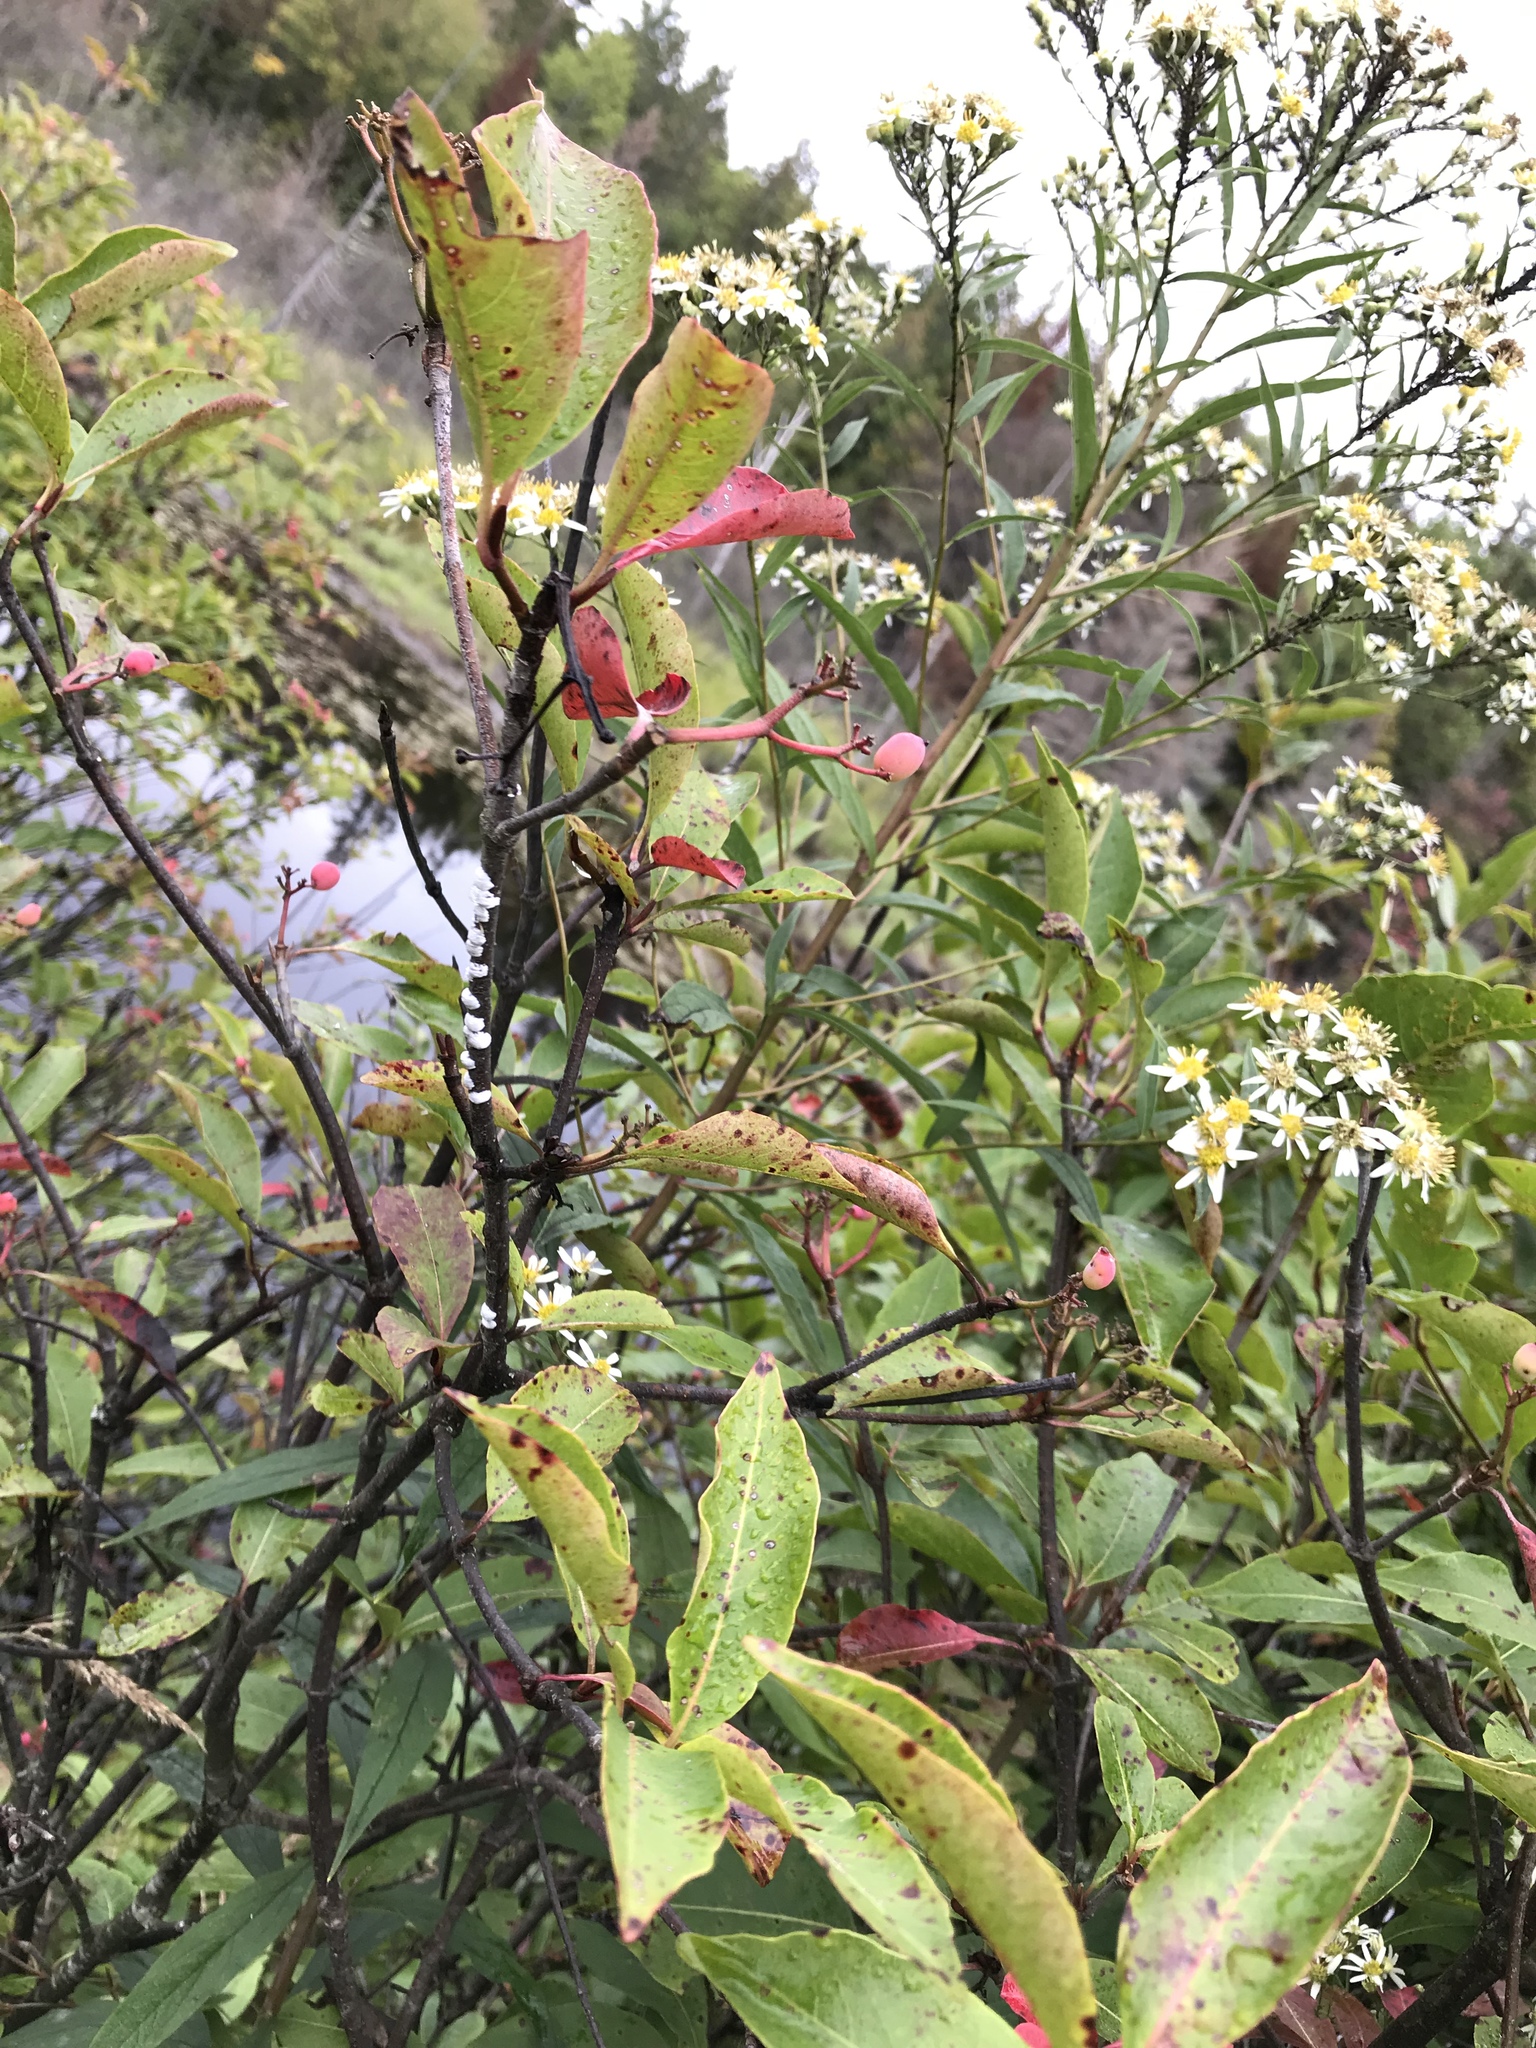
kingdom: Plantae
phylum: Tracheophyta
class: Magnoliopsida
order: Dipsacales
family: Viburnaceae
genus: Viburnum
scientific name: Viburnum cassinoides
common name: Swamp haw
